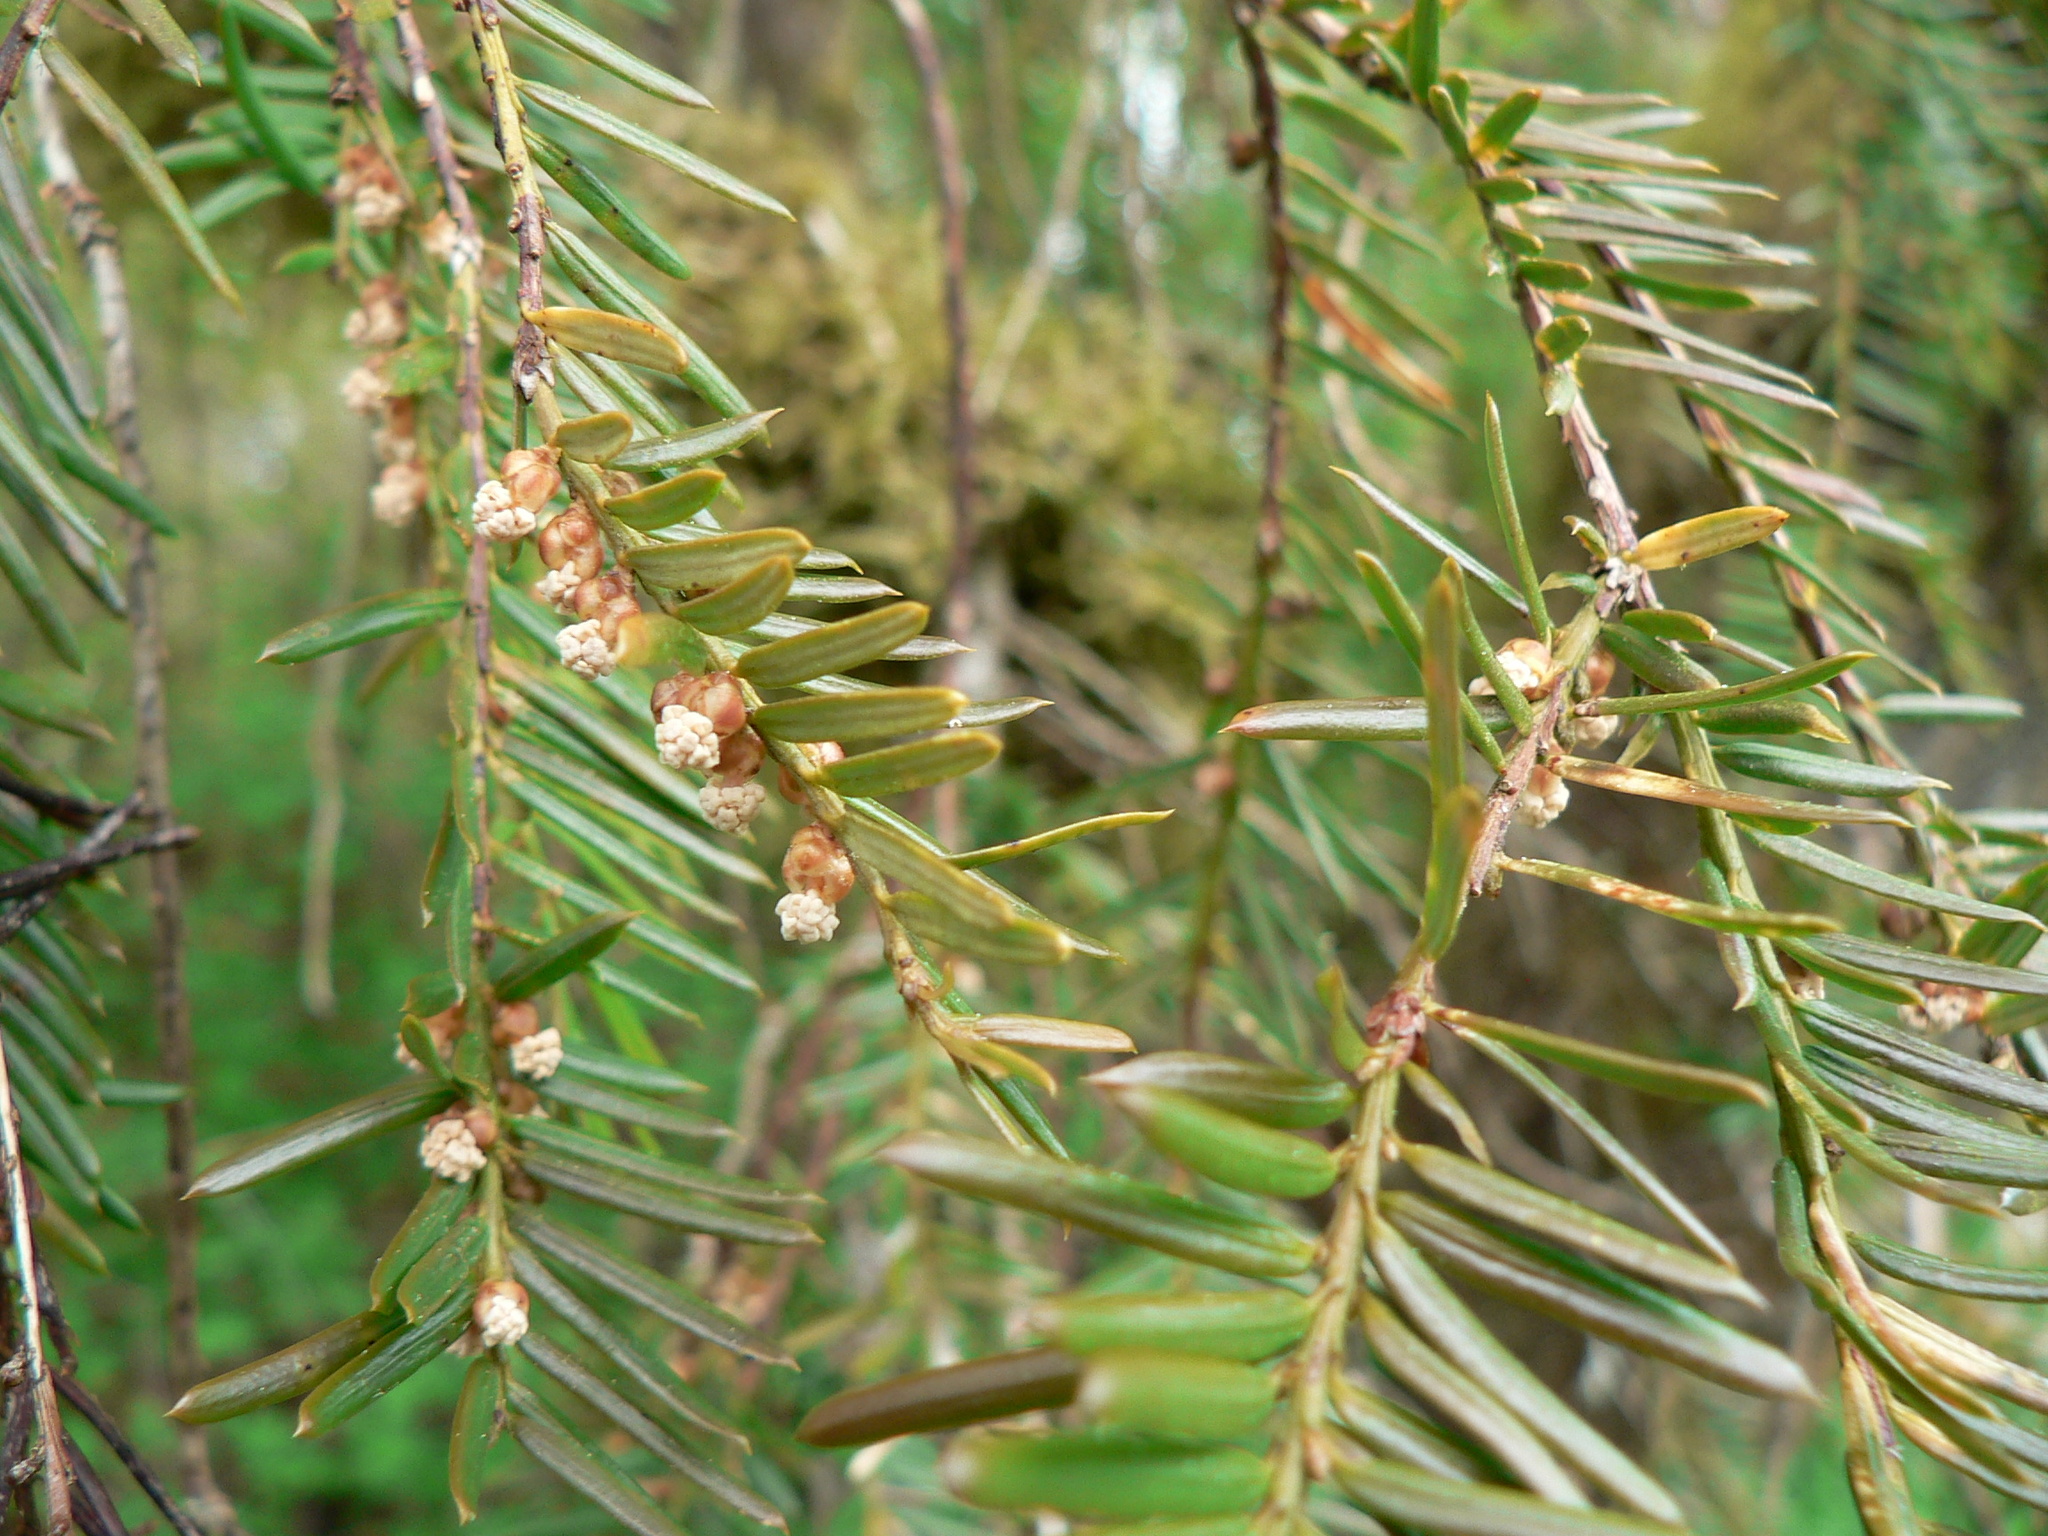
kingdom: Plantae
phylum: Tracheophyta
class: Pinopsida
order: Pinales
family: Taxaceae
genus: Taxus
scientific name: Taxus brevifolia
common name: Pacific yew
